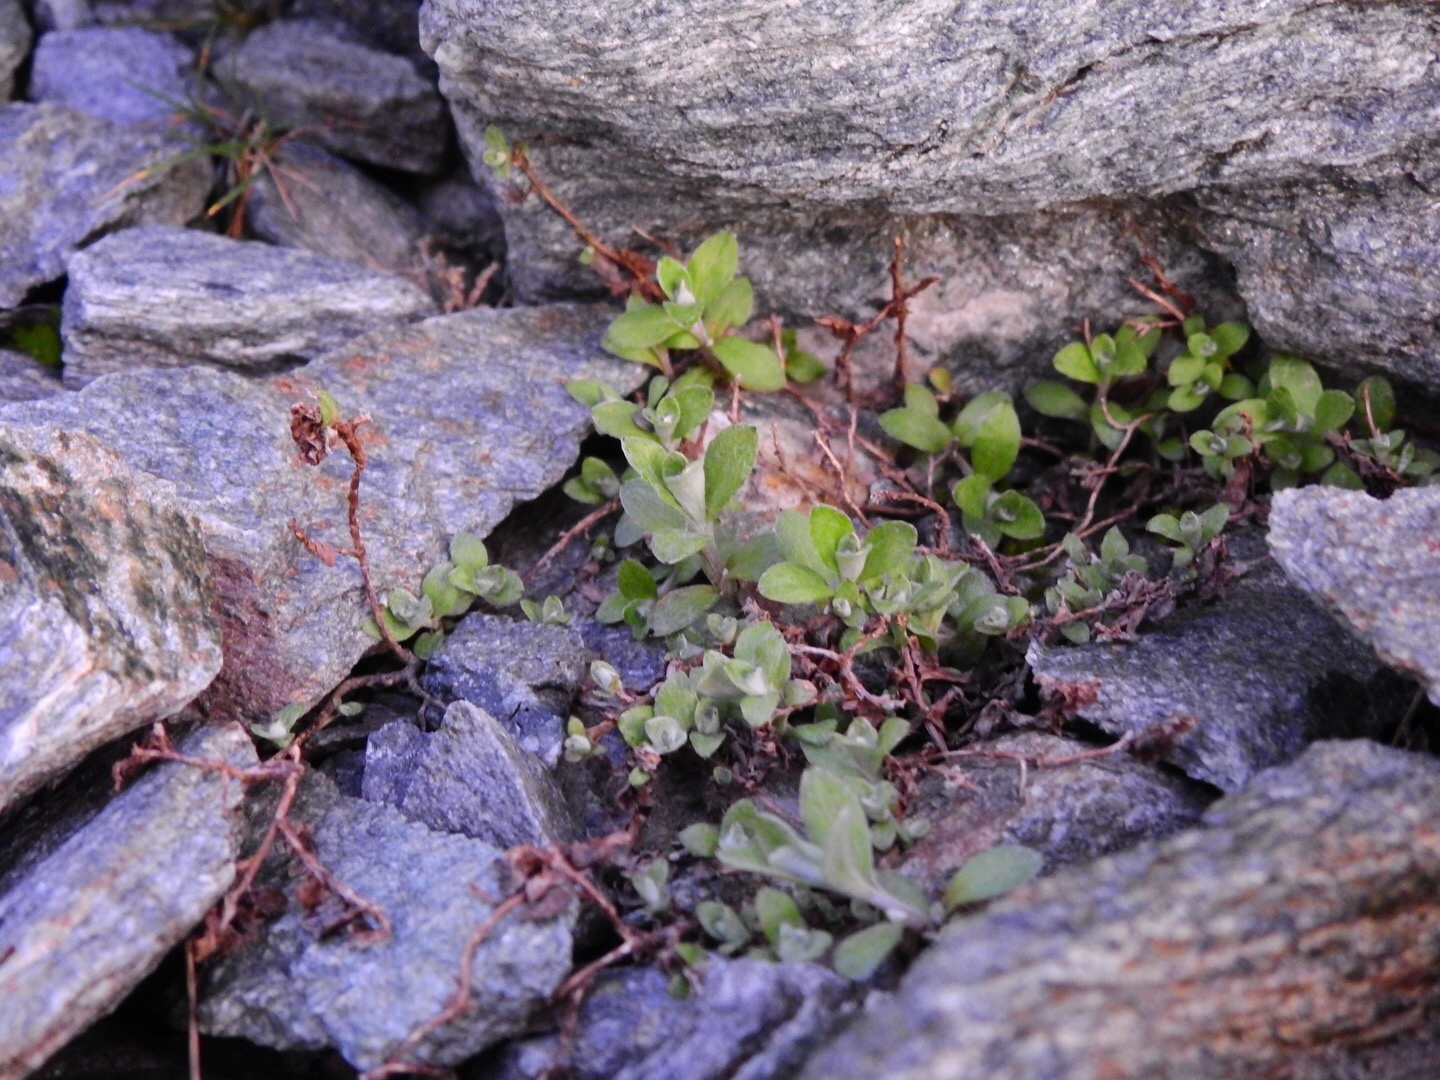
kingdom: Plantae
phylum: Tracheophyta
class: Magnoliopsida
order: Asterales
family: Asteraceae
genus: Anaphalioides
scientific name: Anaphalioides bellidioides
